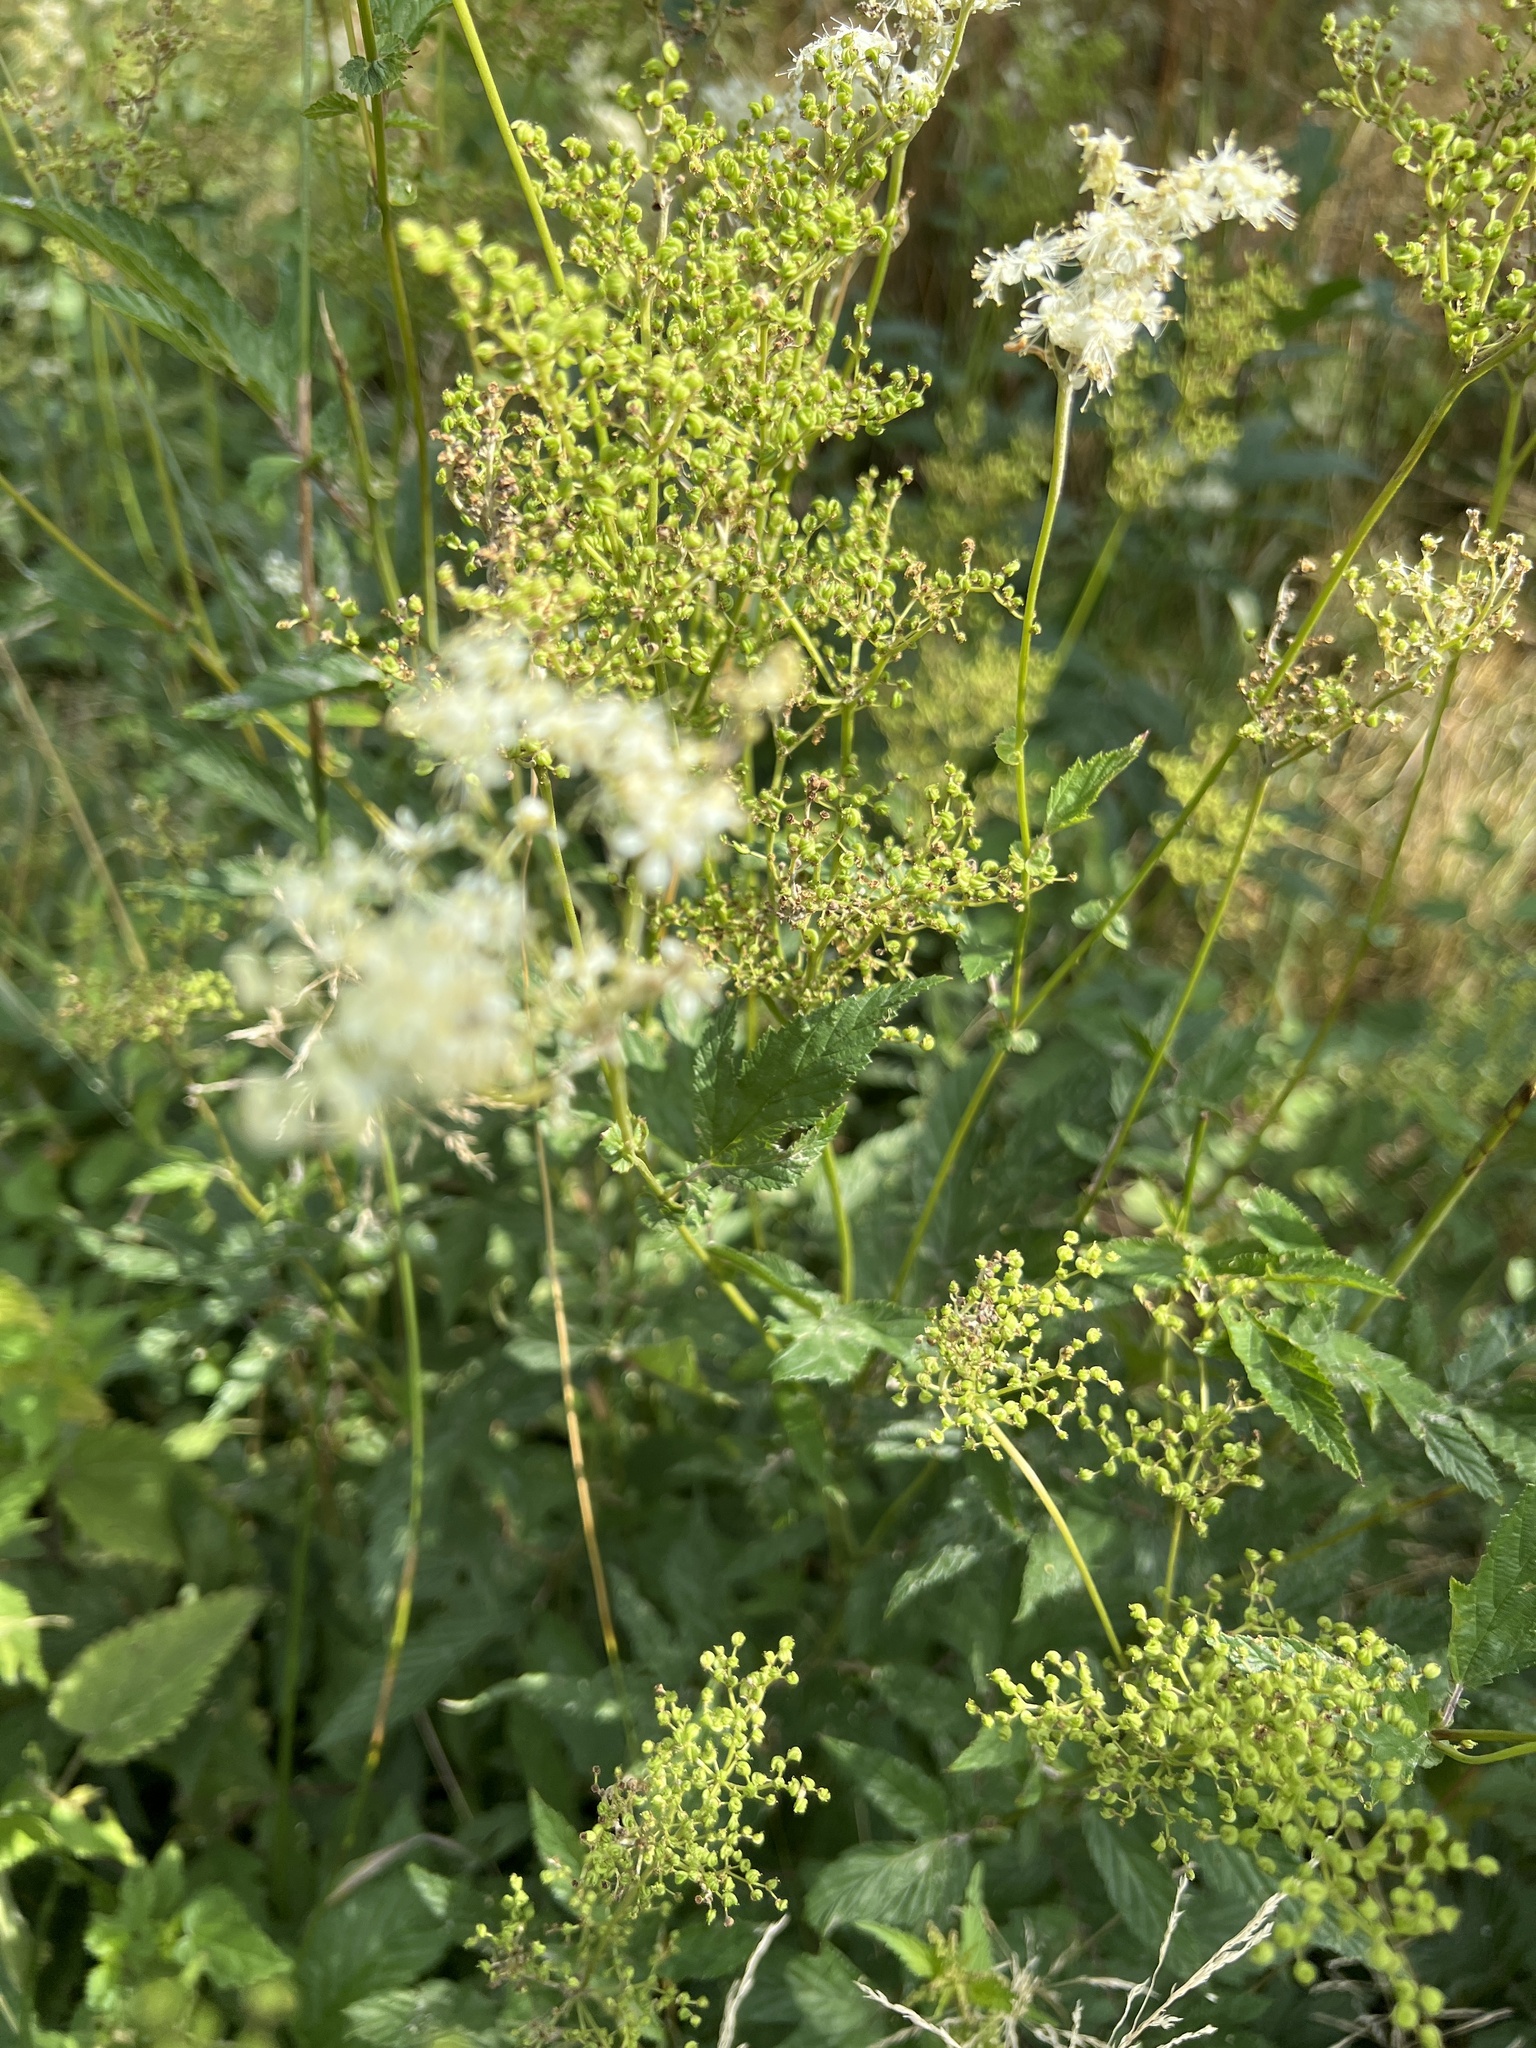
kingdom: Plantae
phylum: Tracheophyta
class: Magnoliopsida
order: Rosales
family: Rosaceae
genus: Filipendula
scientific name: Filipendula ulmaria
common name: Meadowsweet
